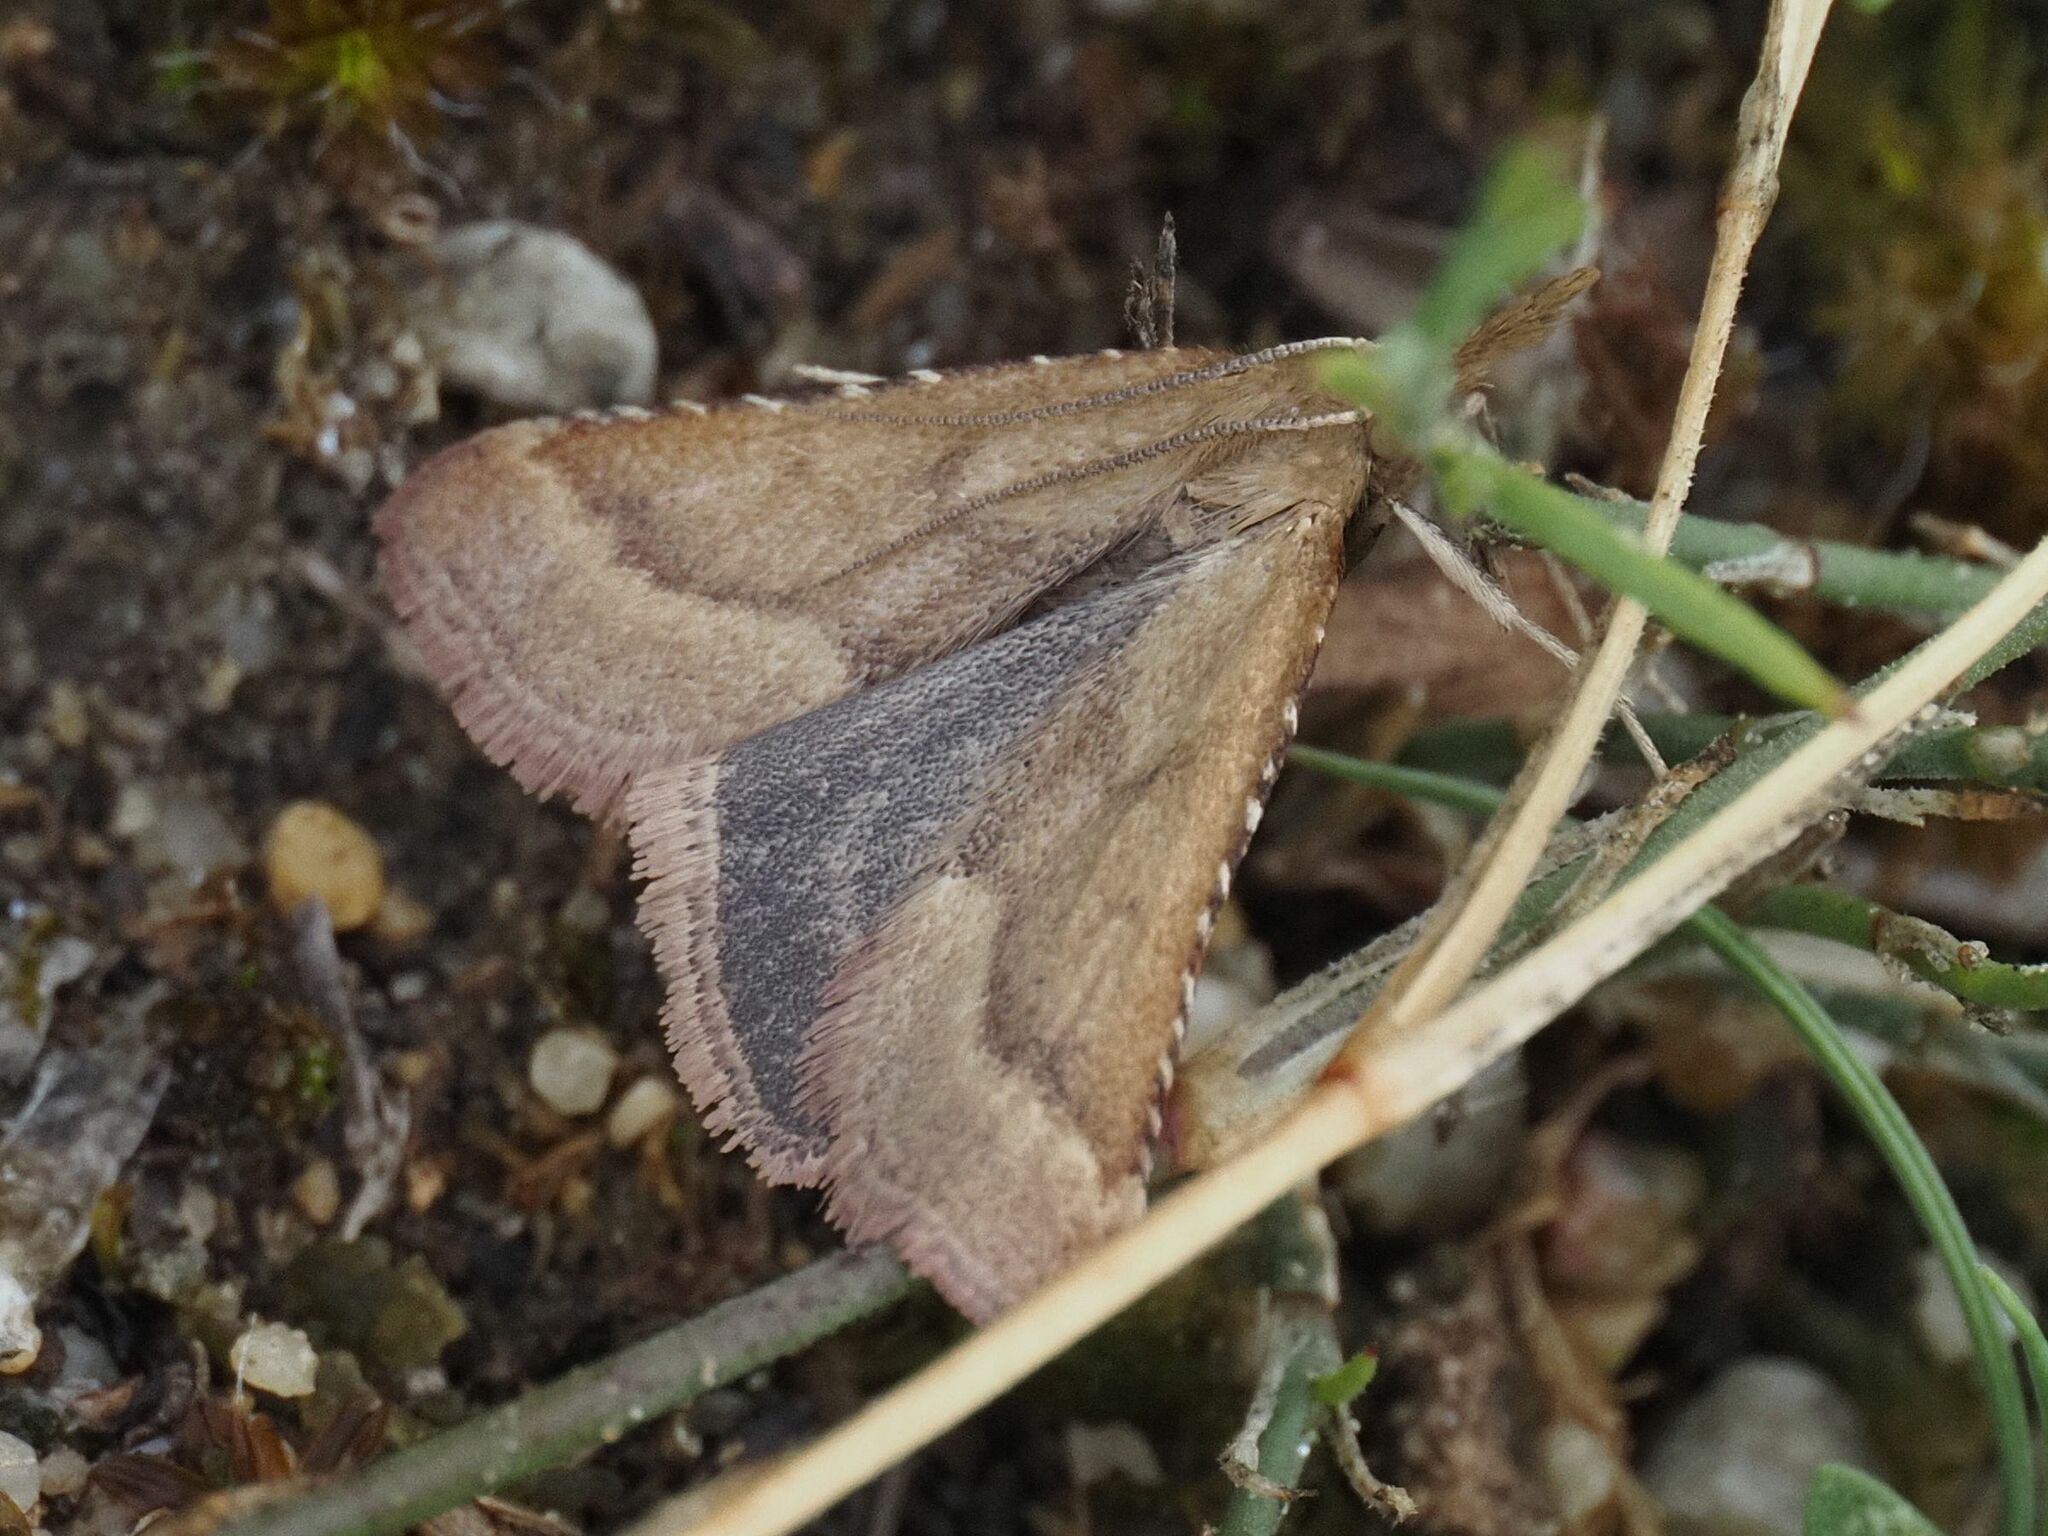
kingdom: Animalia
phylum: Arthropoda
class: Insecta
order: Lepidoptera
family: Pyralidae
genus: Synaphe
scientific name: Synaphe punctalis
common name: Long-legged tabby
